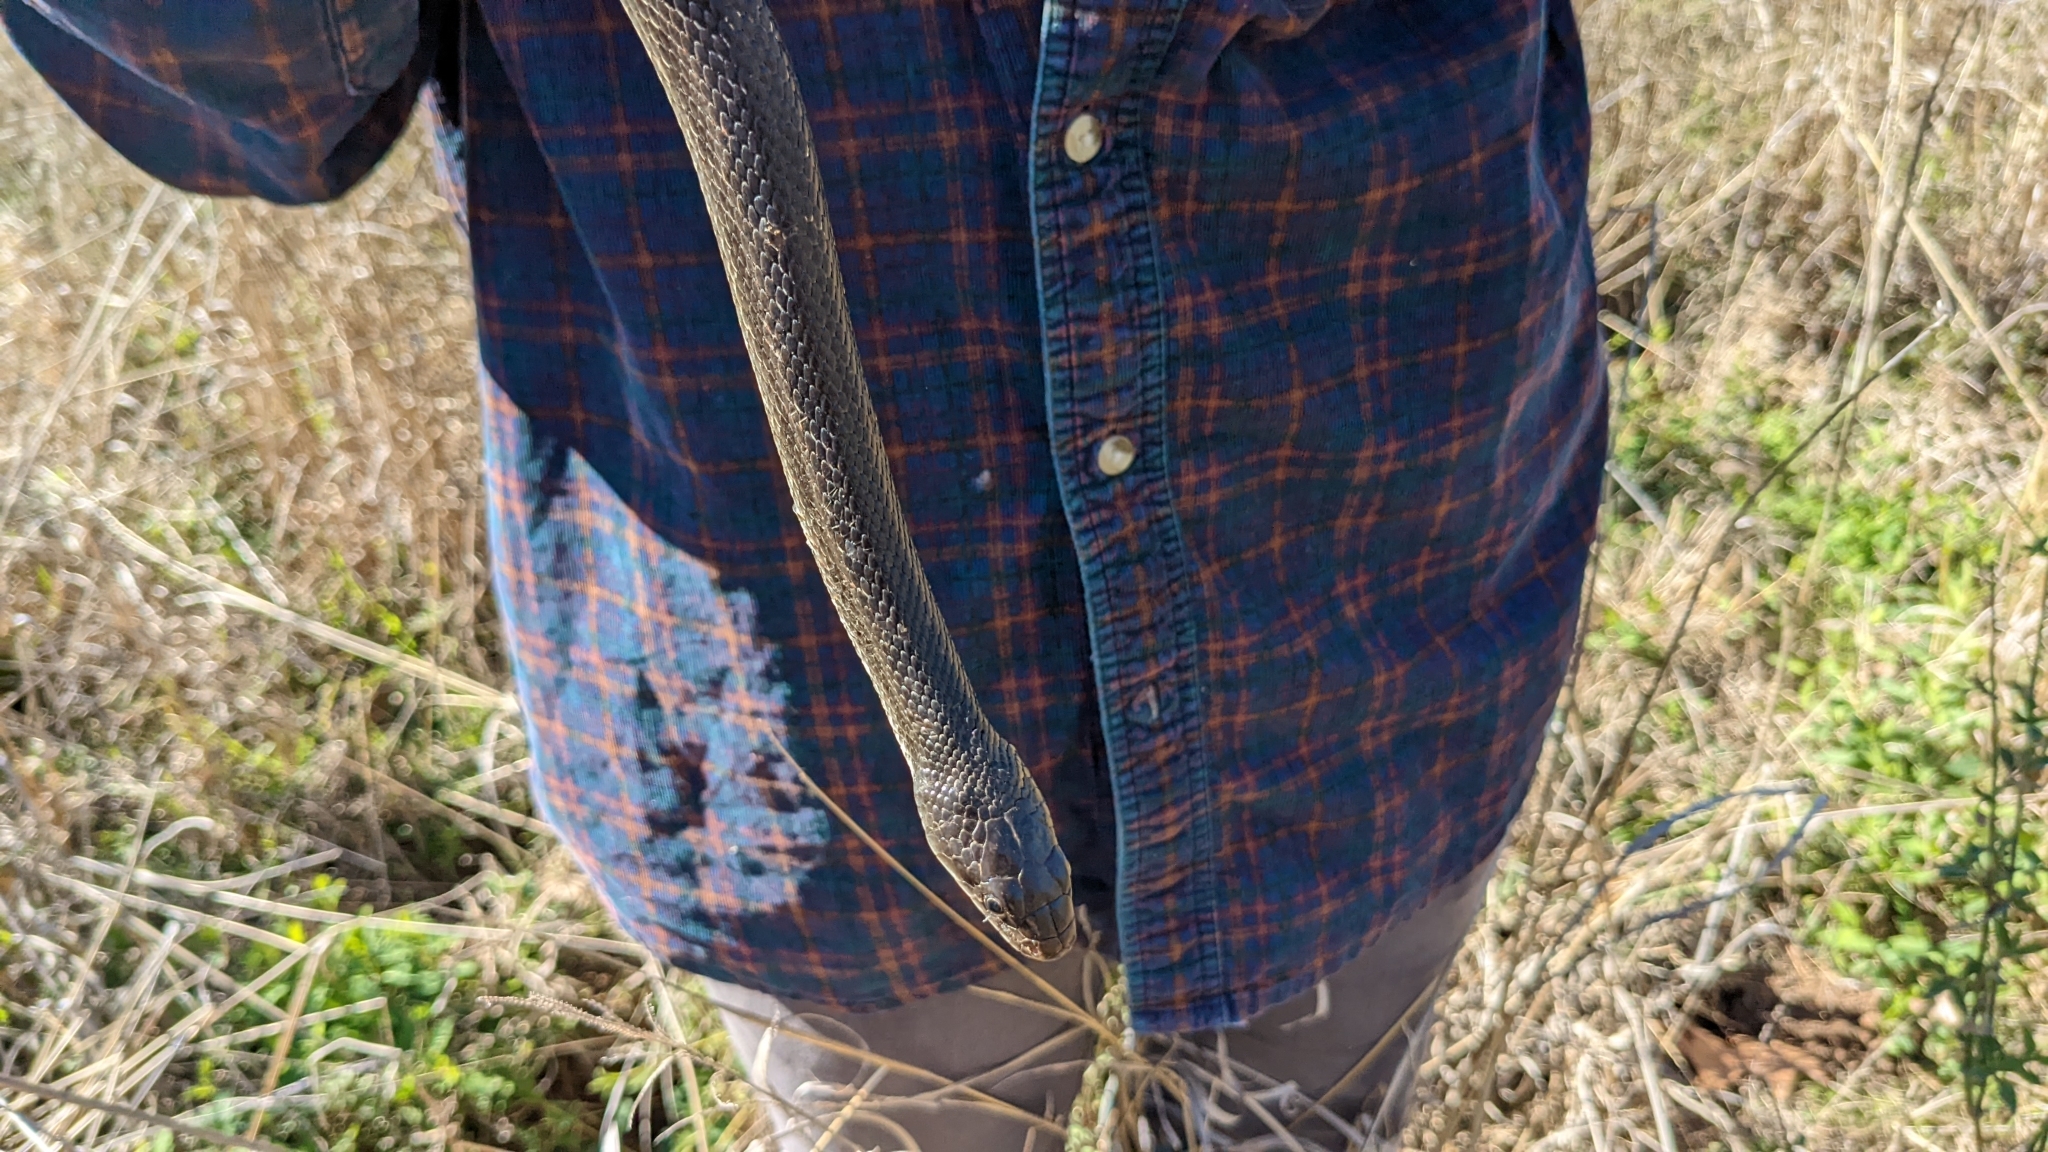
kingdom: Animalia
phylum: Chordata
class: Squamata
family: Colubridae
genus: Pantherophis
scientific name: Pantherophis obsoletus
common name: Black rat snake
